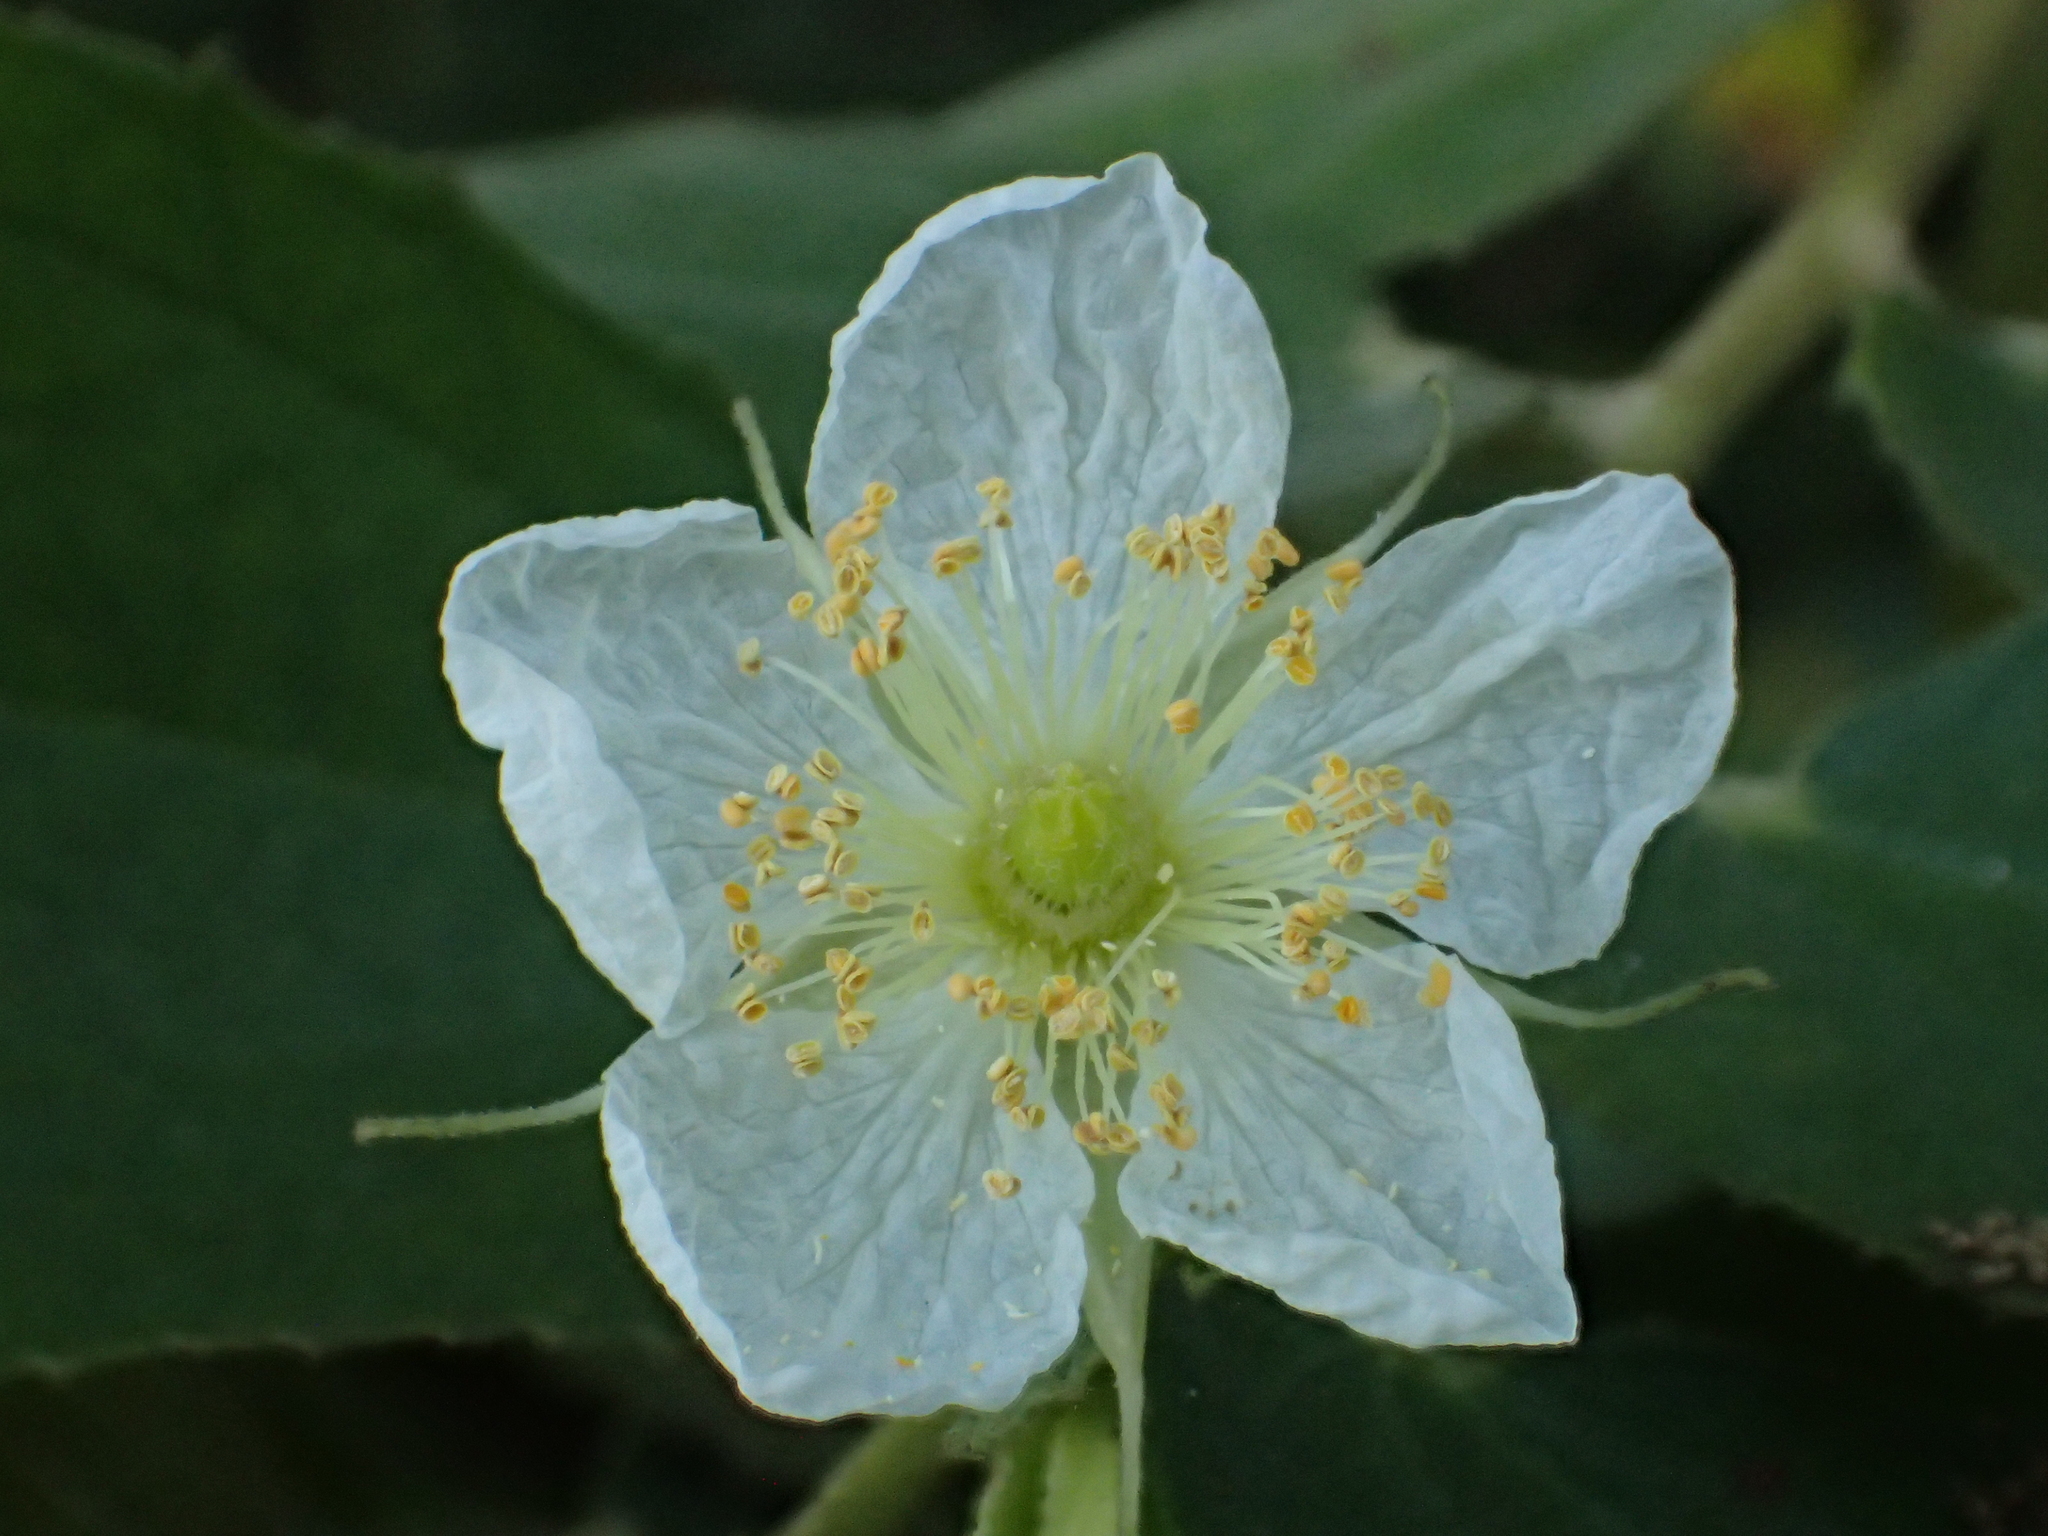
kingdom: Plantae
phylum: Tracheophyta
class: Magnoliopsida
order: Malvales
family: Muntingiaceae
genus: Muntingia
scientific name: Muntingia calabura
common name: Strawberrytree
